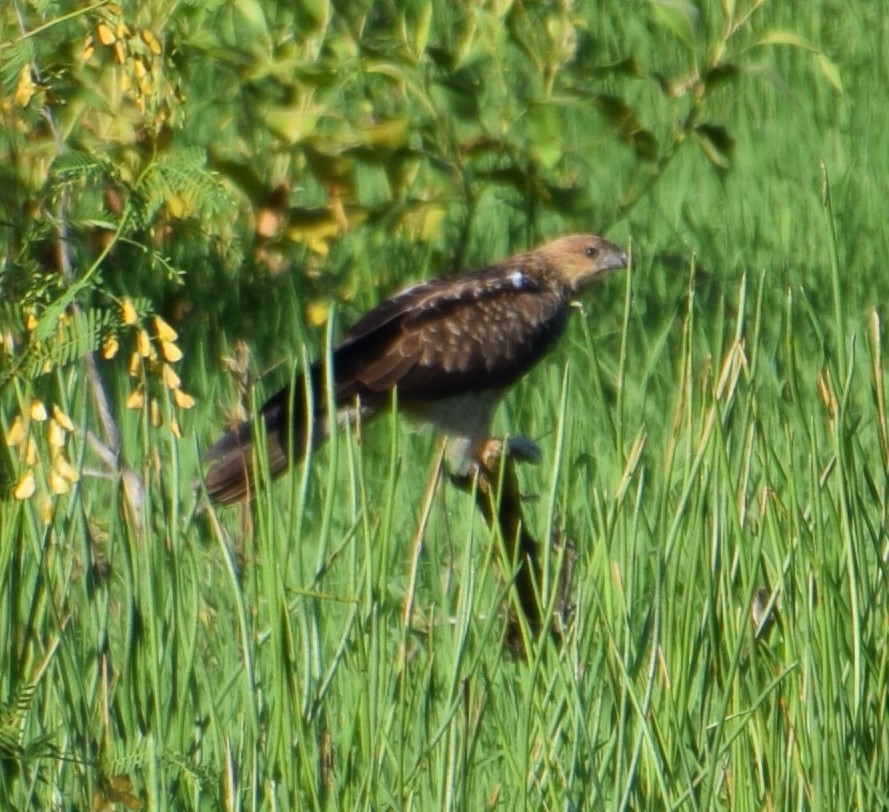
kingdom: Animalia
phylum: Chordata
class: Aves
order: Accipitriformes
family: Accipitridae
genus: Haliastur
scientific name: Haliastur sphenurus
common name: Whistling kite
